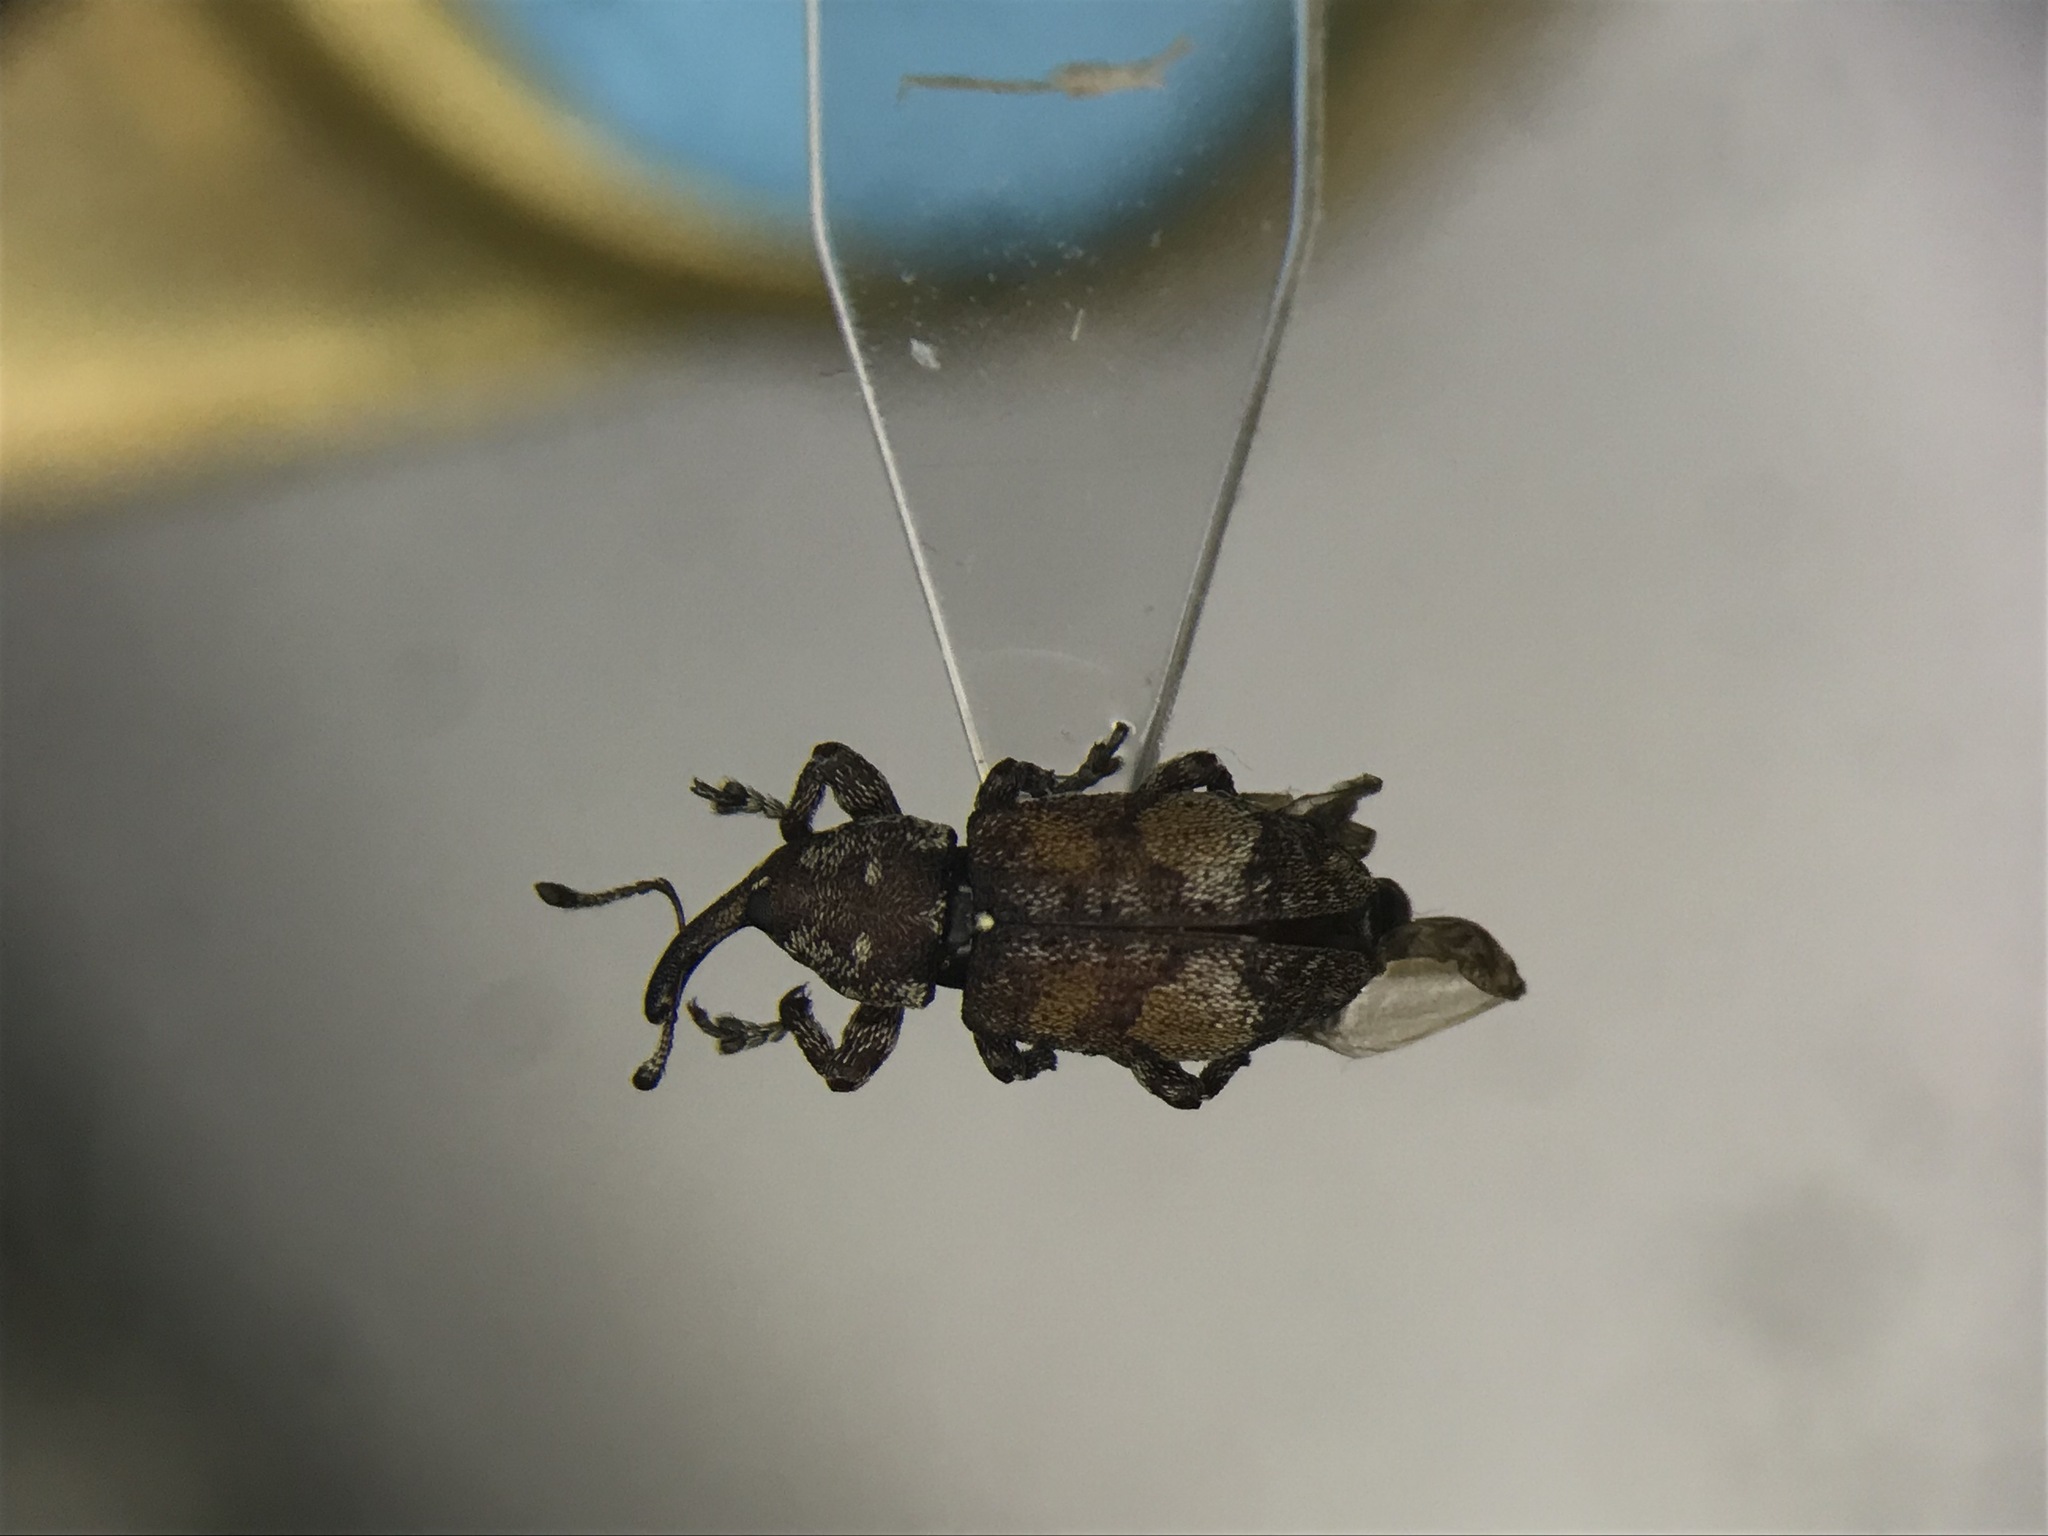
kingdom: Animalia
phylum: Arthropoda
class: Insecta
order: Coleoptera
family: Curculionidae
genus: Pissodes
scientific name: Pissodes similis
